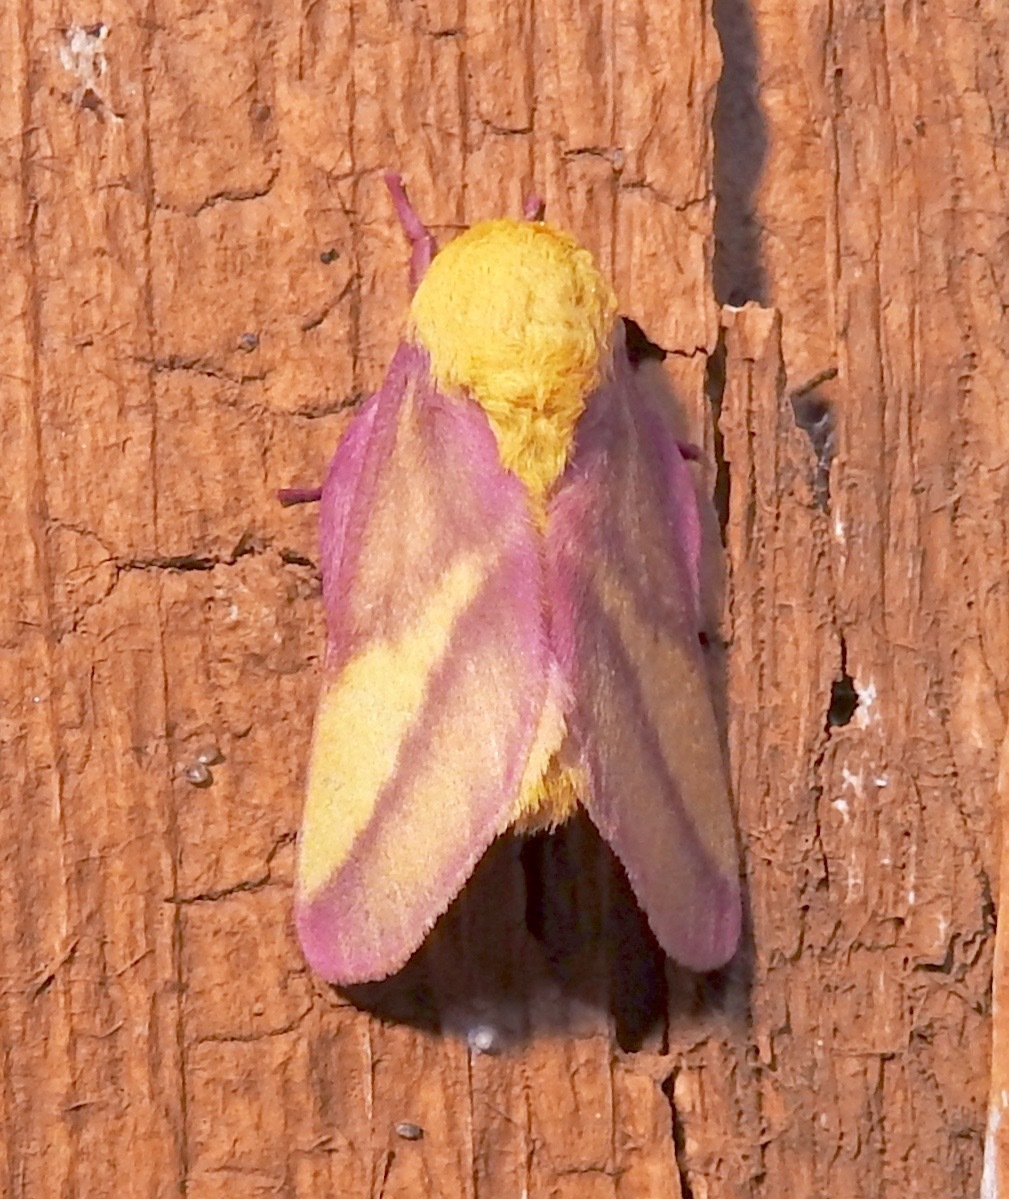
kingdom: Animalia
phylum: Arthropoda
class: Insecta
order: Lepidoptera
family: Saturniidae
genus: Dryocampa
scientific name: Dryocampa rubicunda
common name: Rosy maple moth
